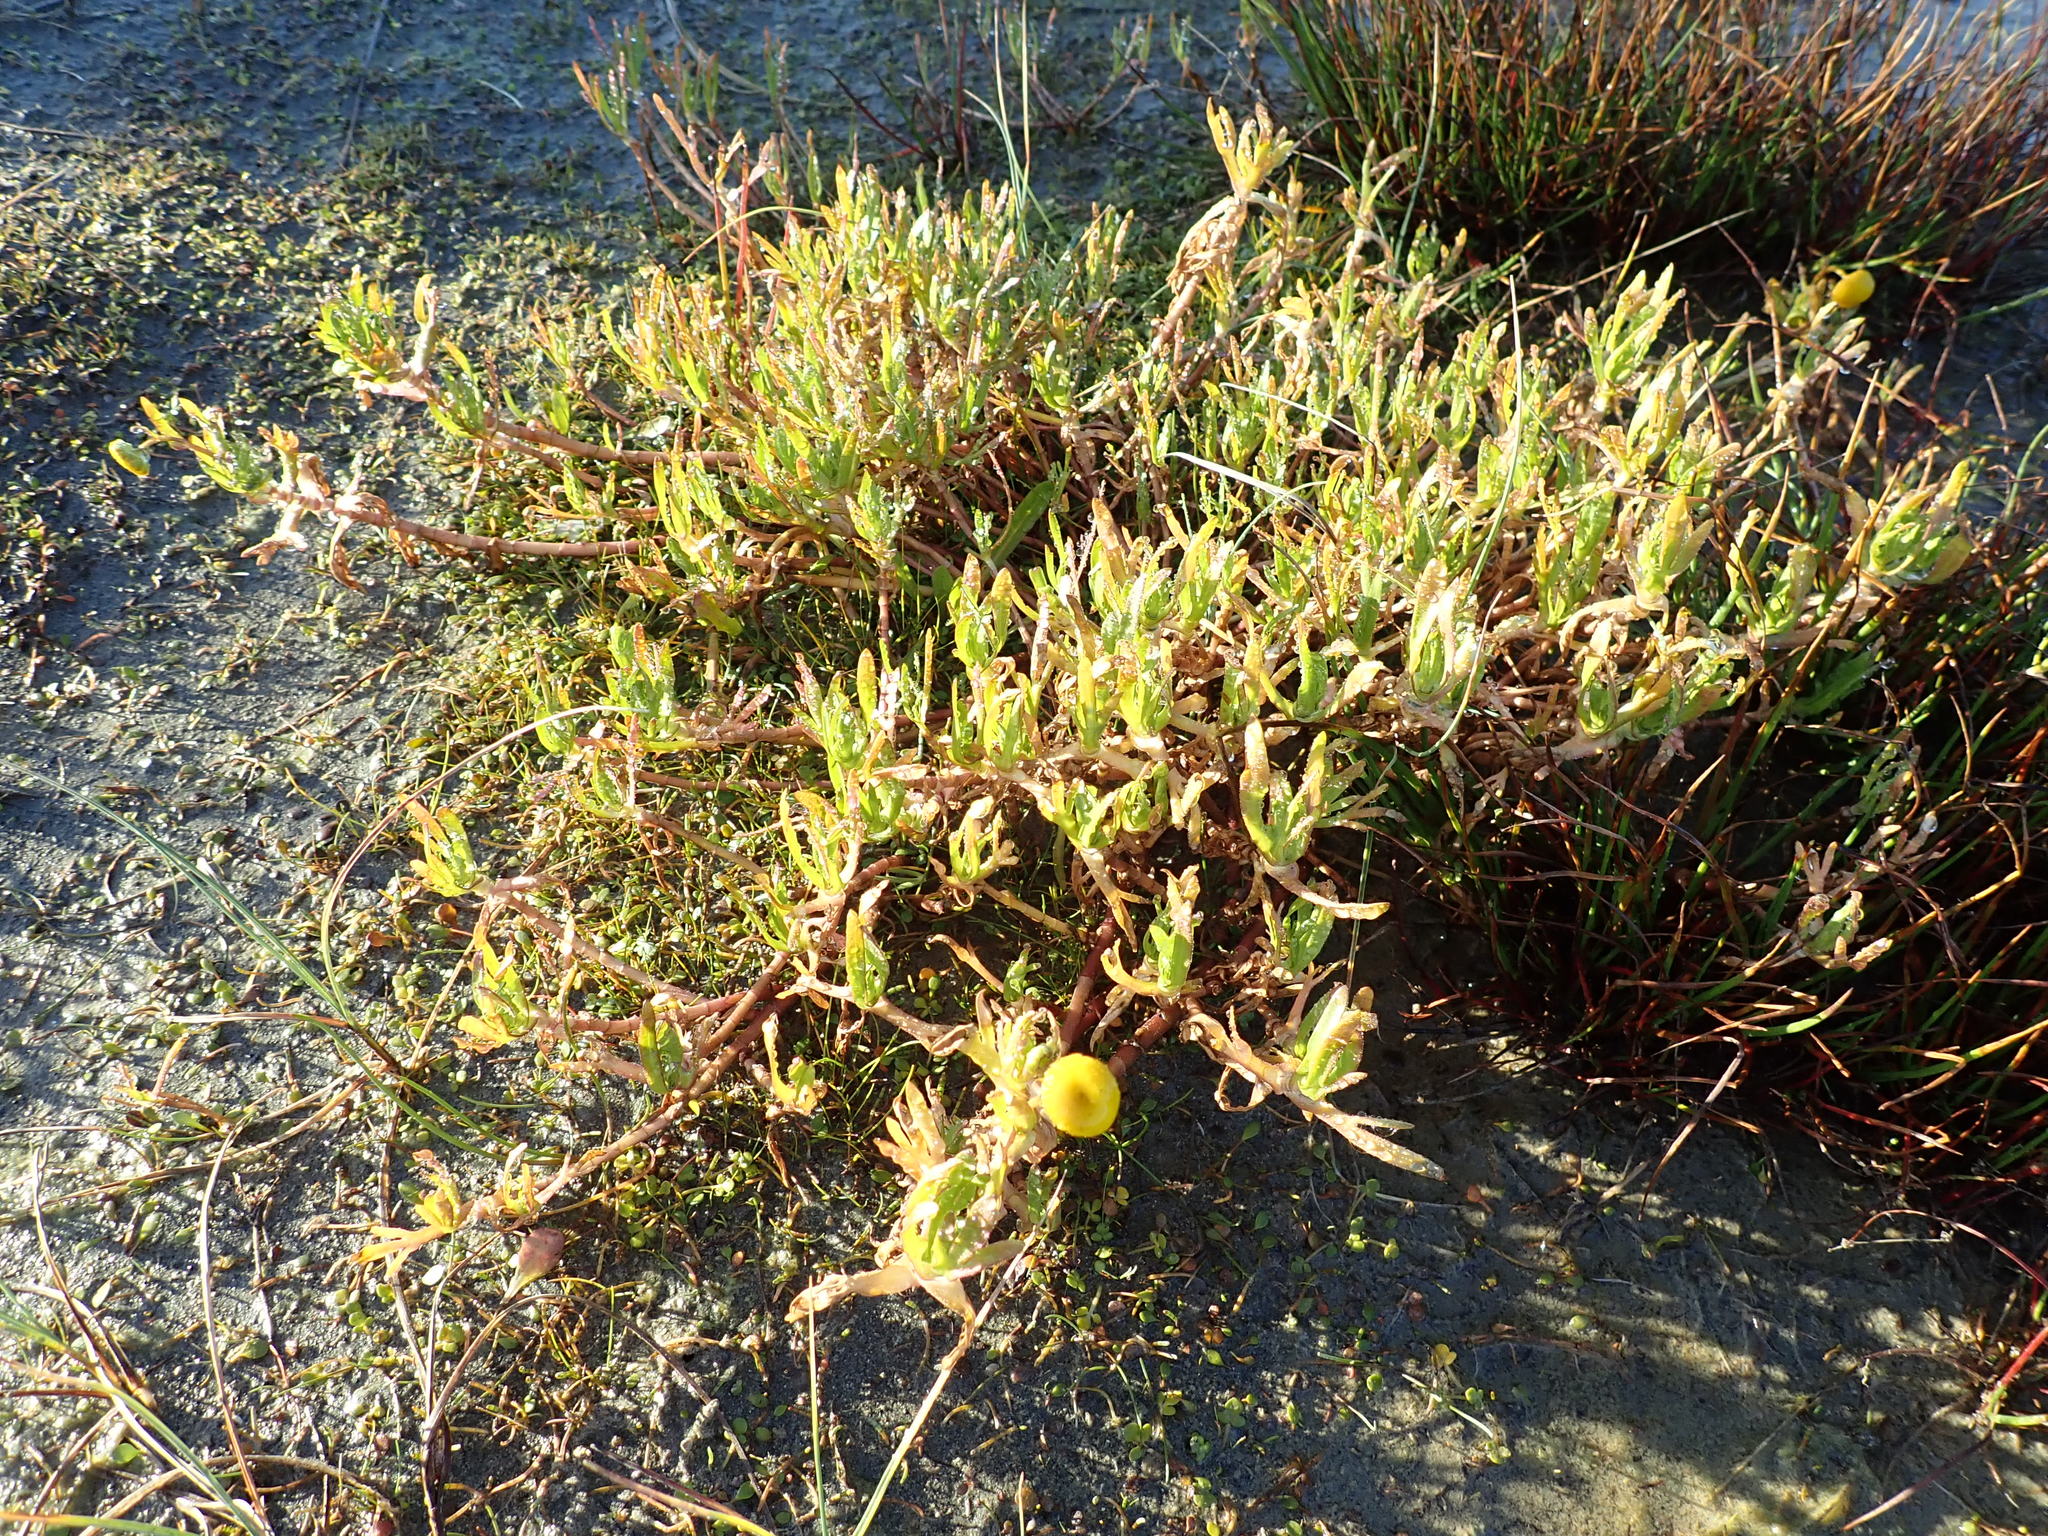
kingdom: Plantae
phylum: Tracheophyta
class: Magnoliopsida
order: Asterales
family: Asteraceae
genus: Cotula
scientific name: Cotula coronopifolia
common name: Buttonweed
